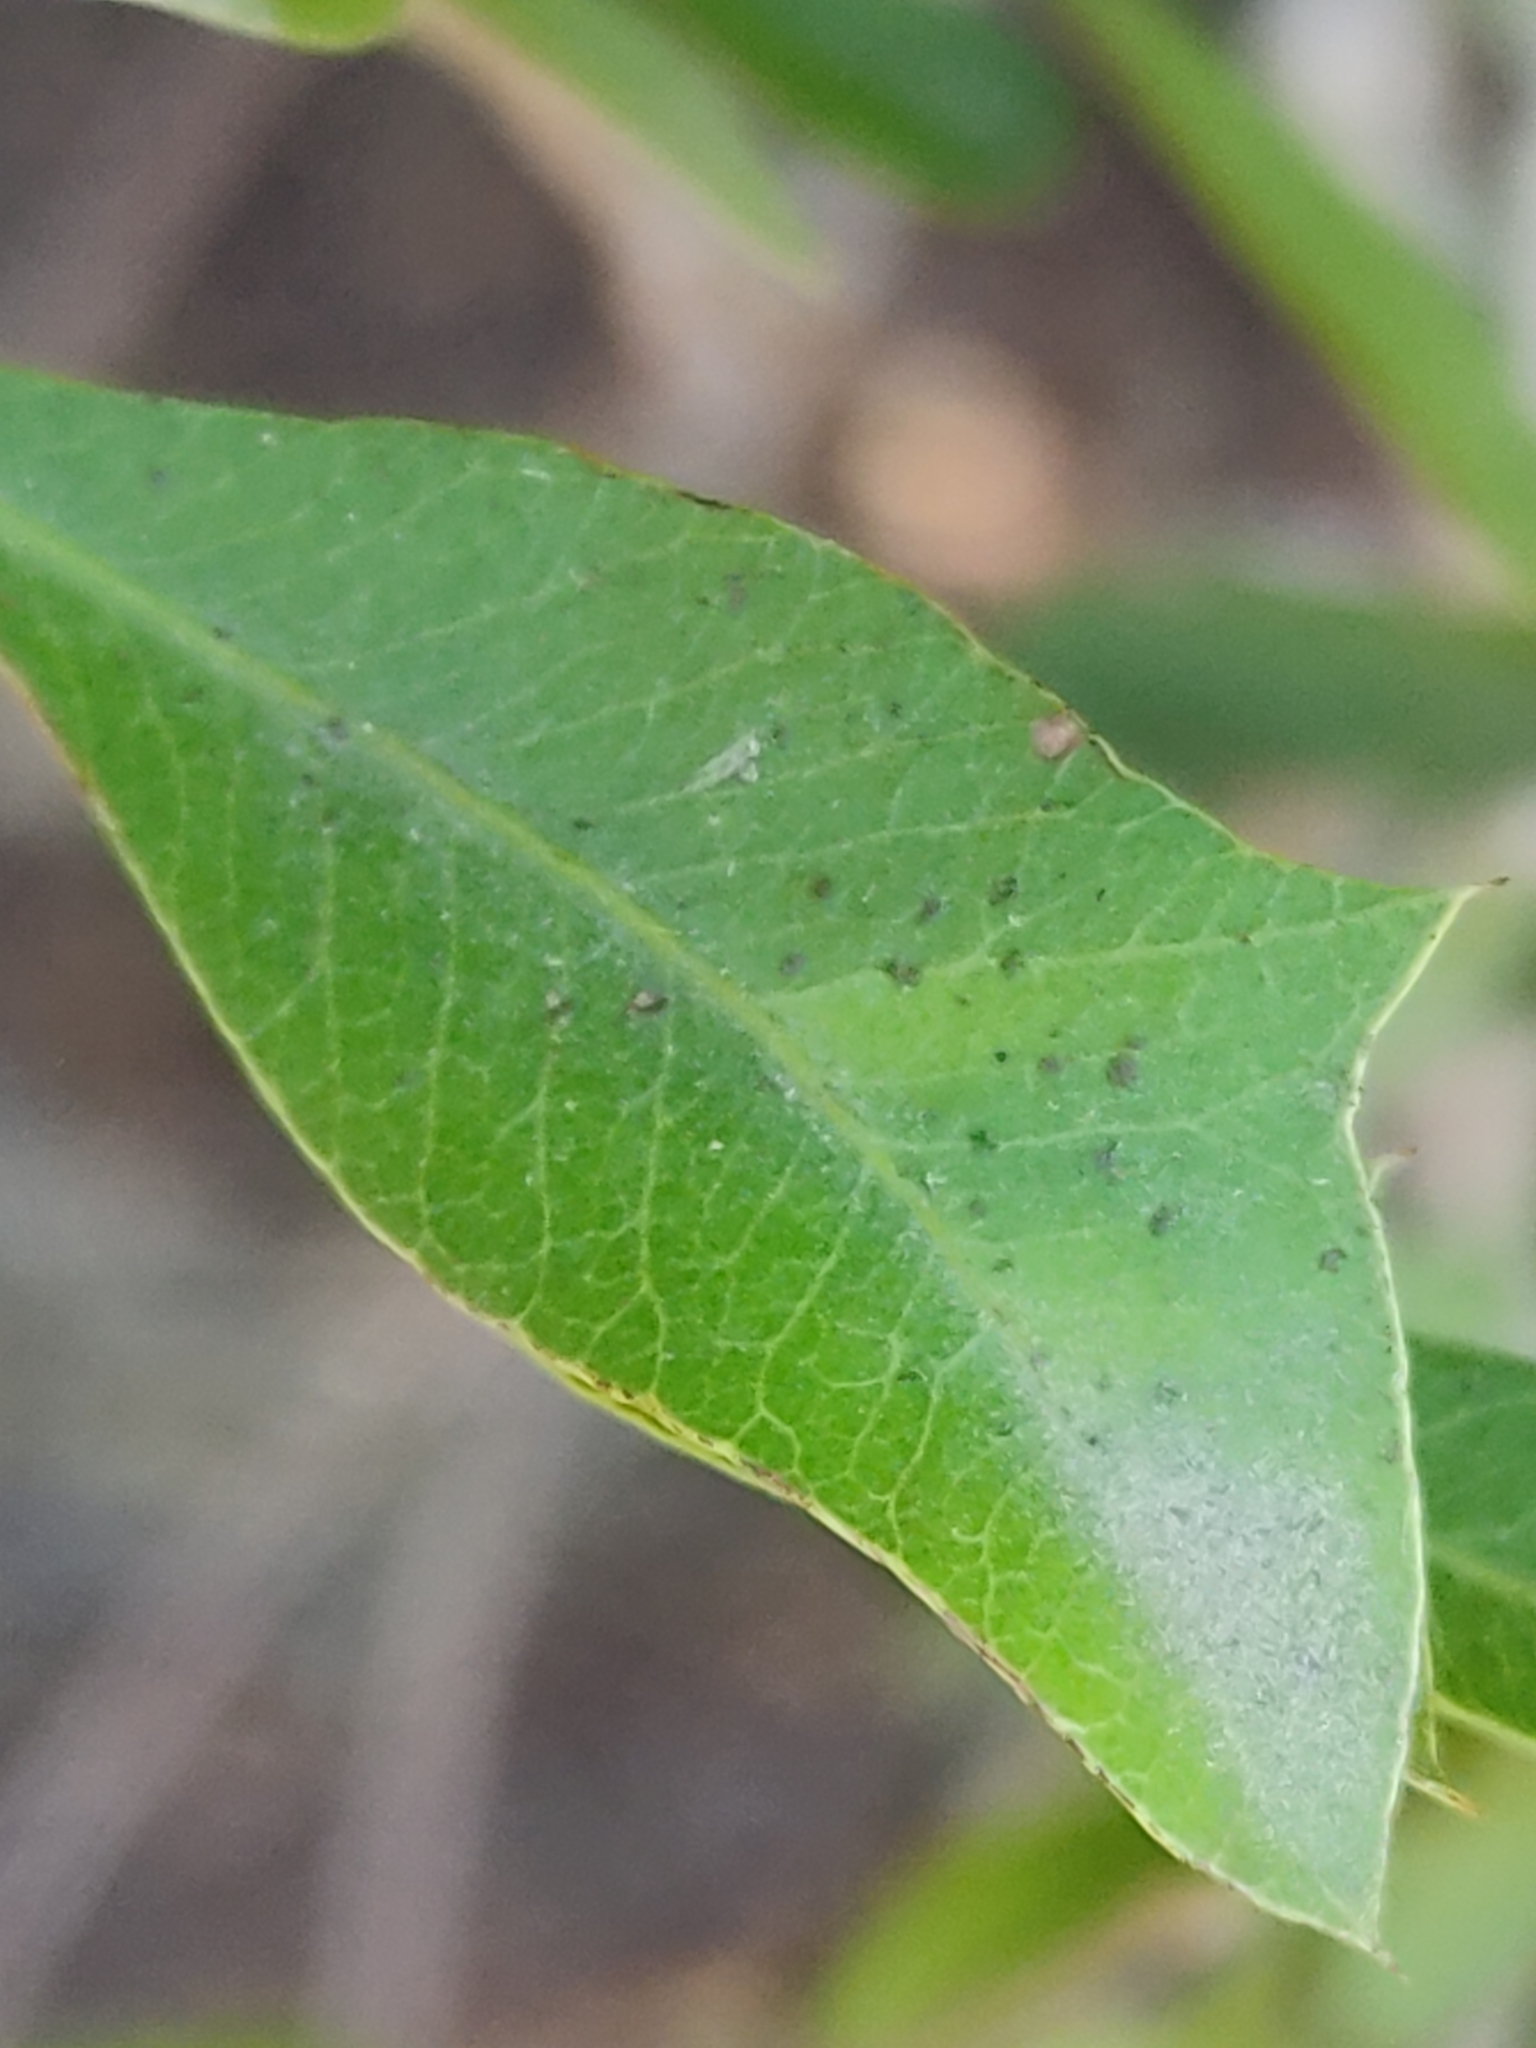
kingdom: Plantae
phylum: Tracheophyta
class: Magnoliopsida
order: Sapindales
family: Sapindaceae
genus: Alectryon
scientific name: Alectryon diversifolius
